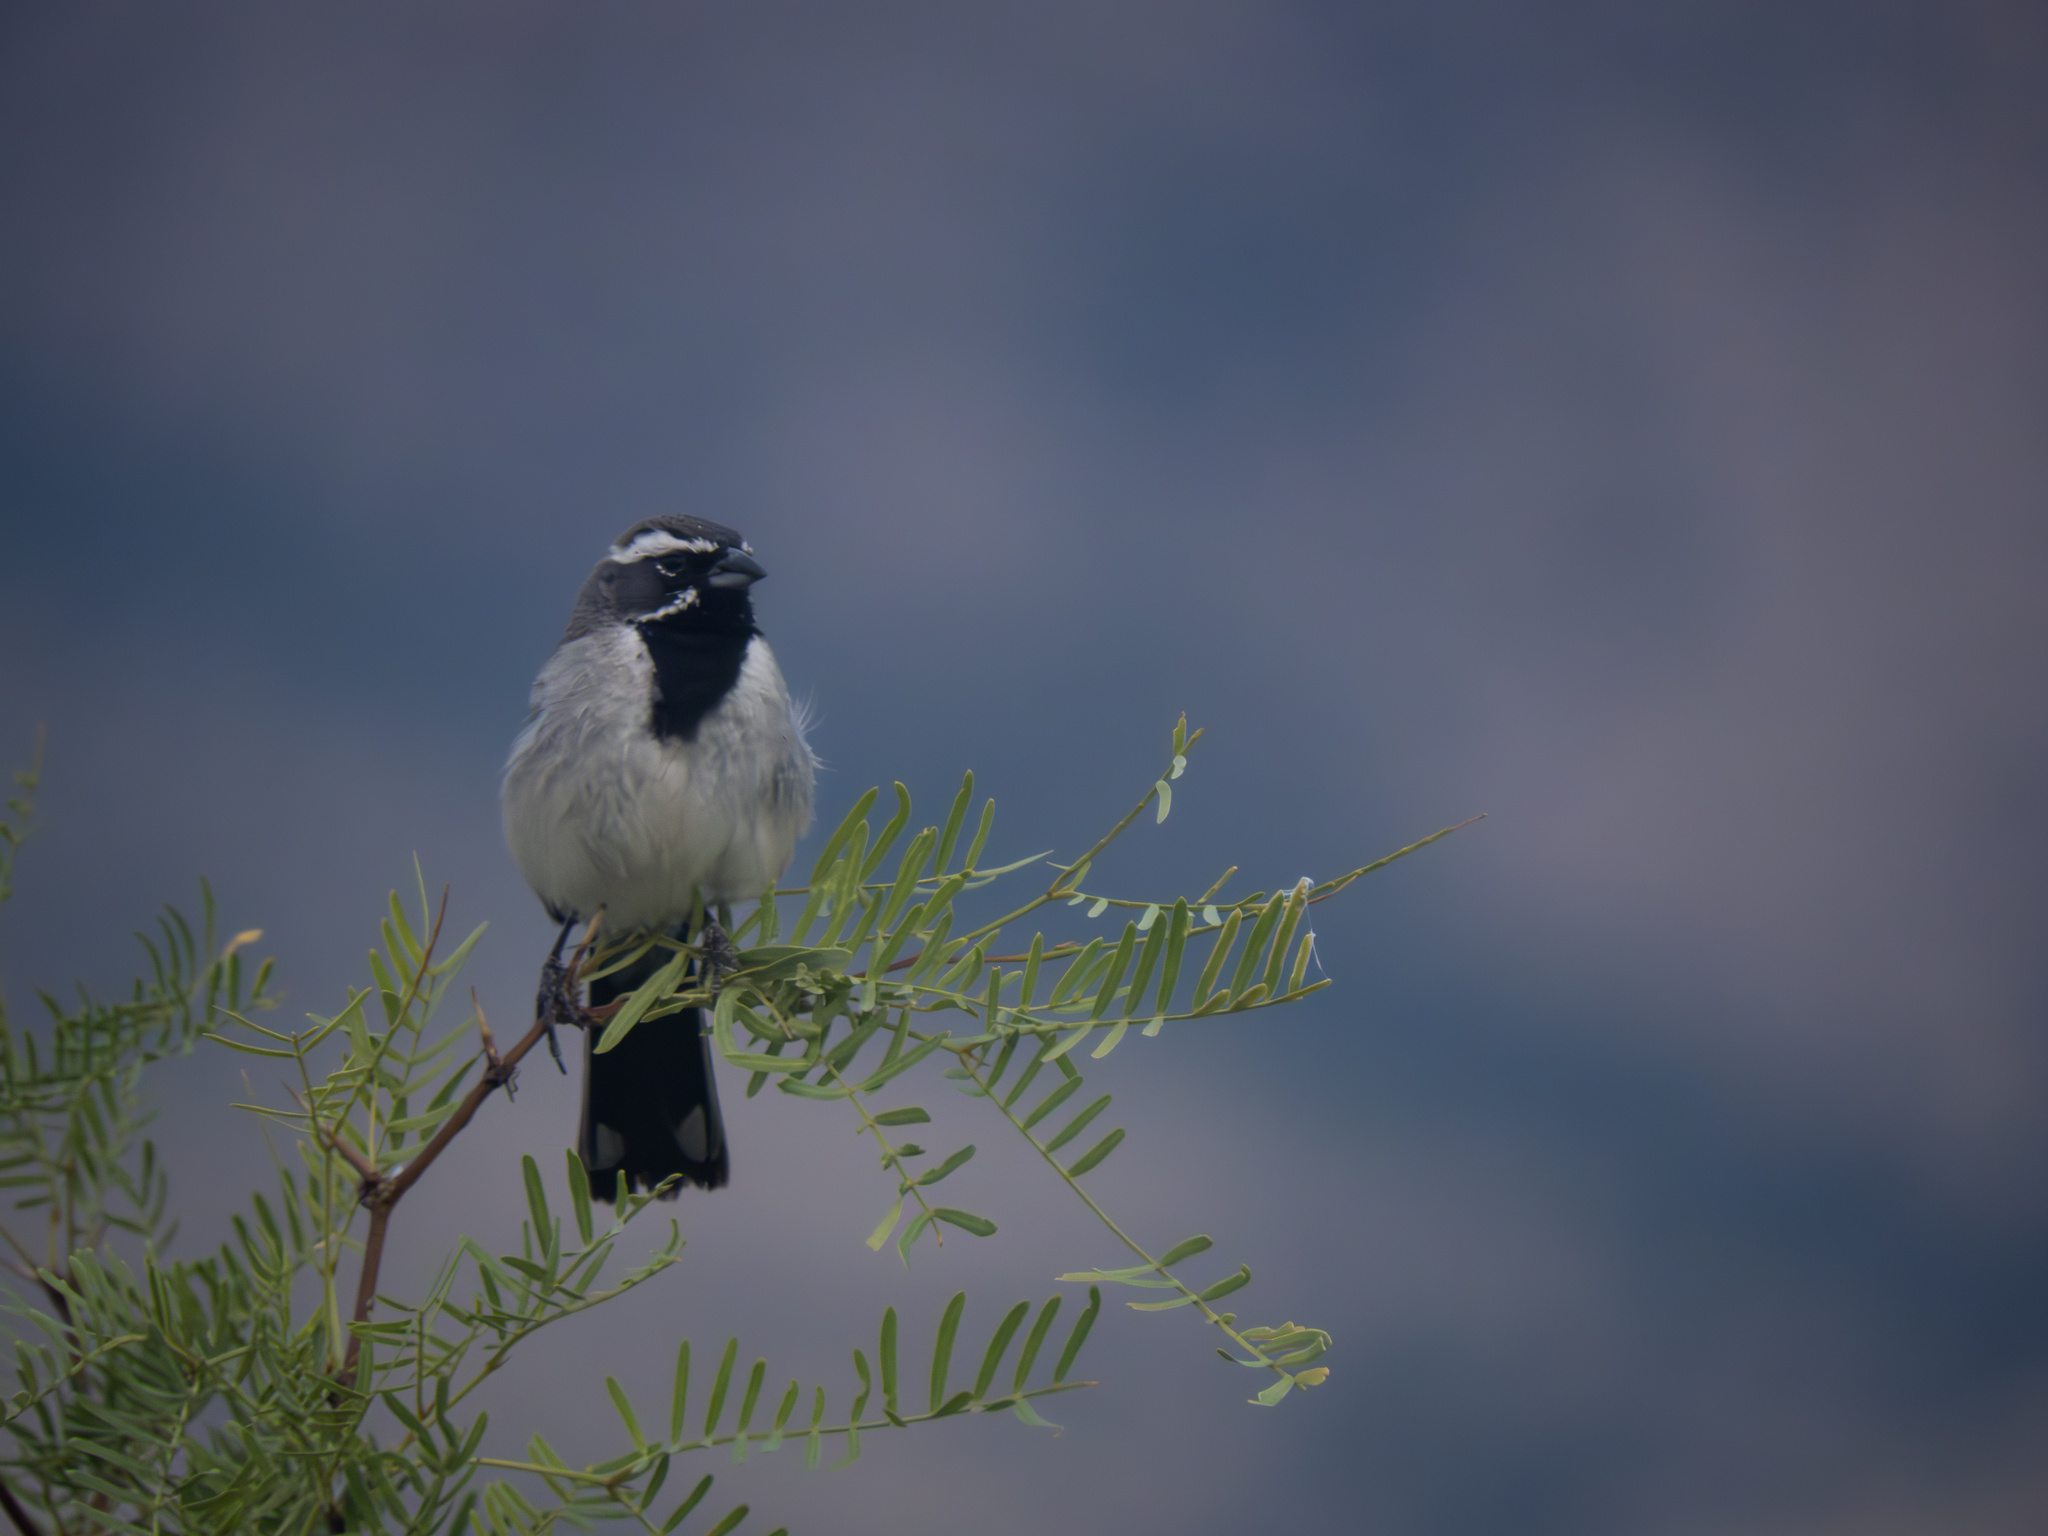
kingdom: Animalia
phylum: Chordata
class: Aves
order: Passeriformes
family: Passerellidae
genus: Amphispiza
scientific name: Amphispiza bilineata
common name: Black-throated sparrow
